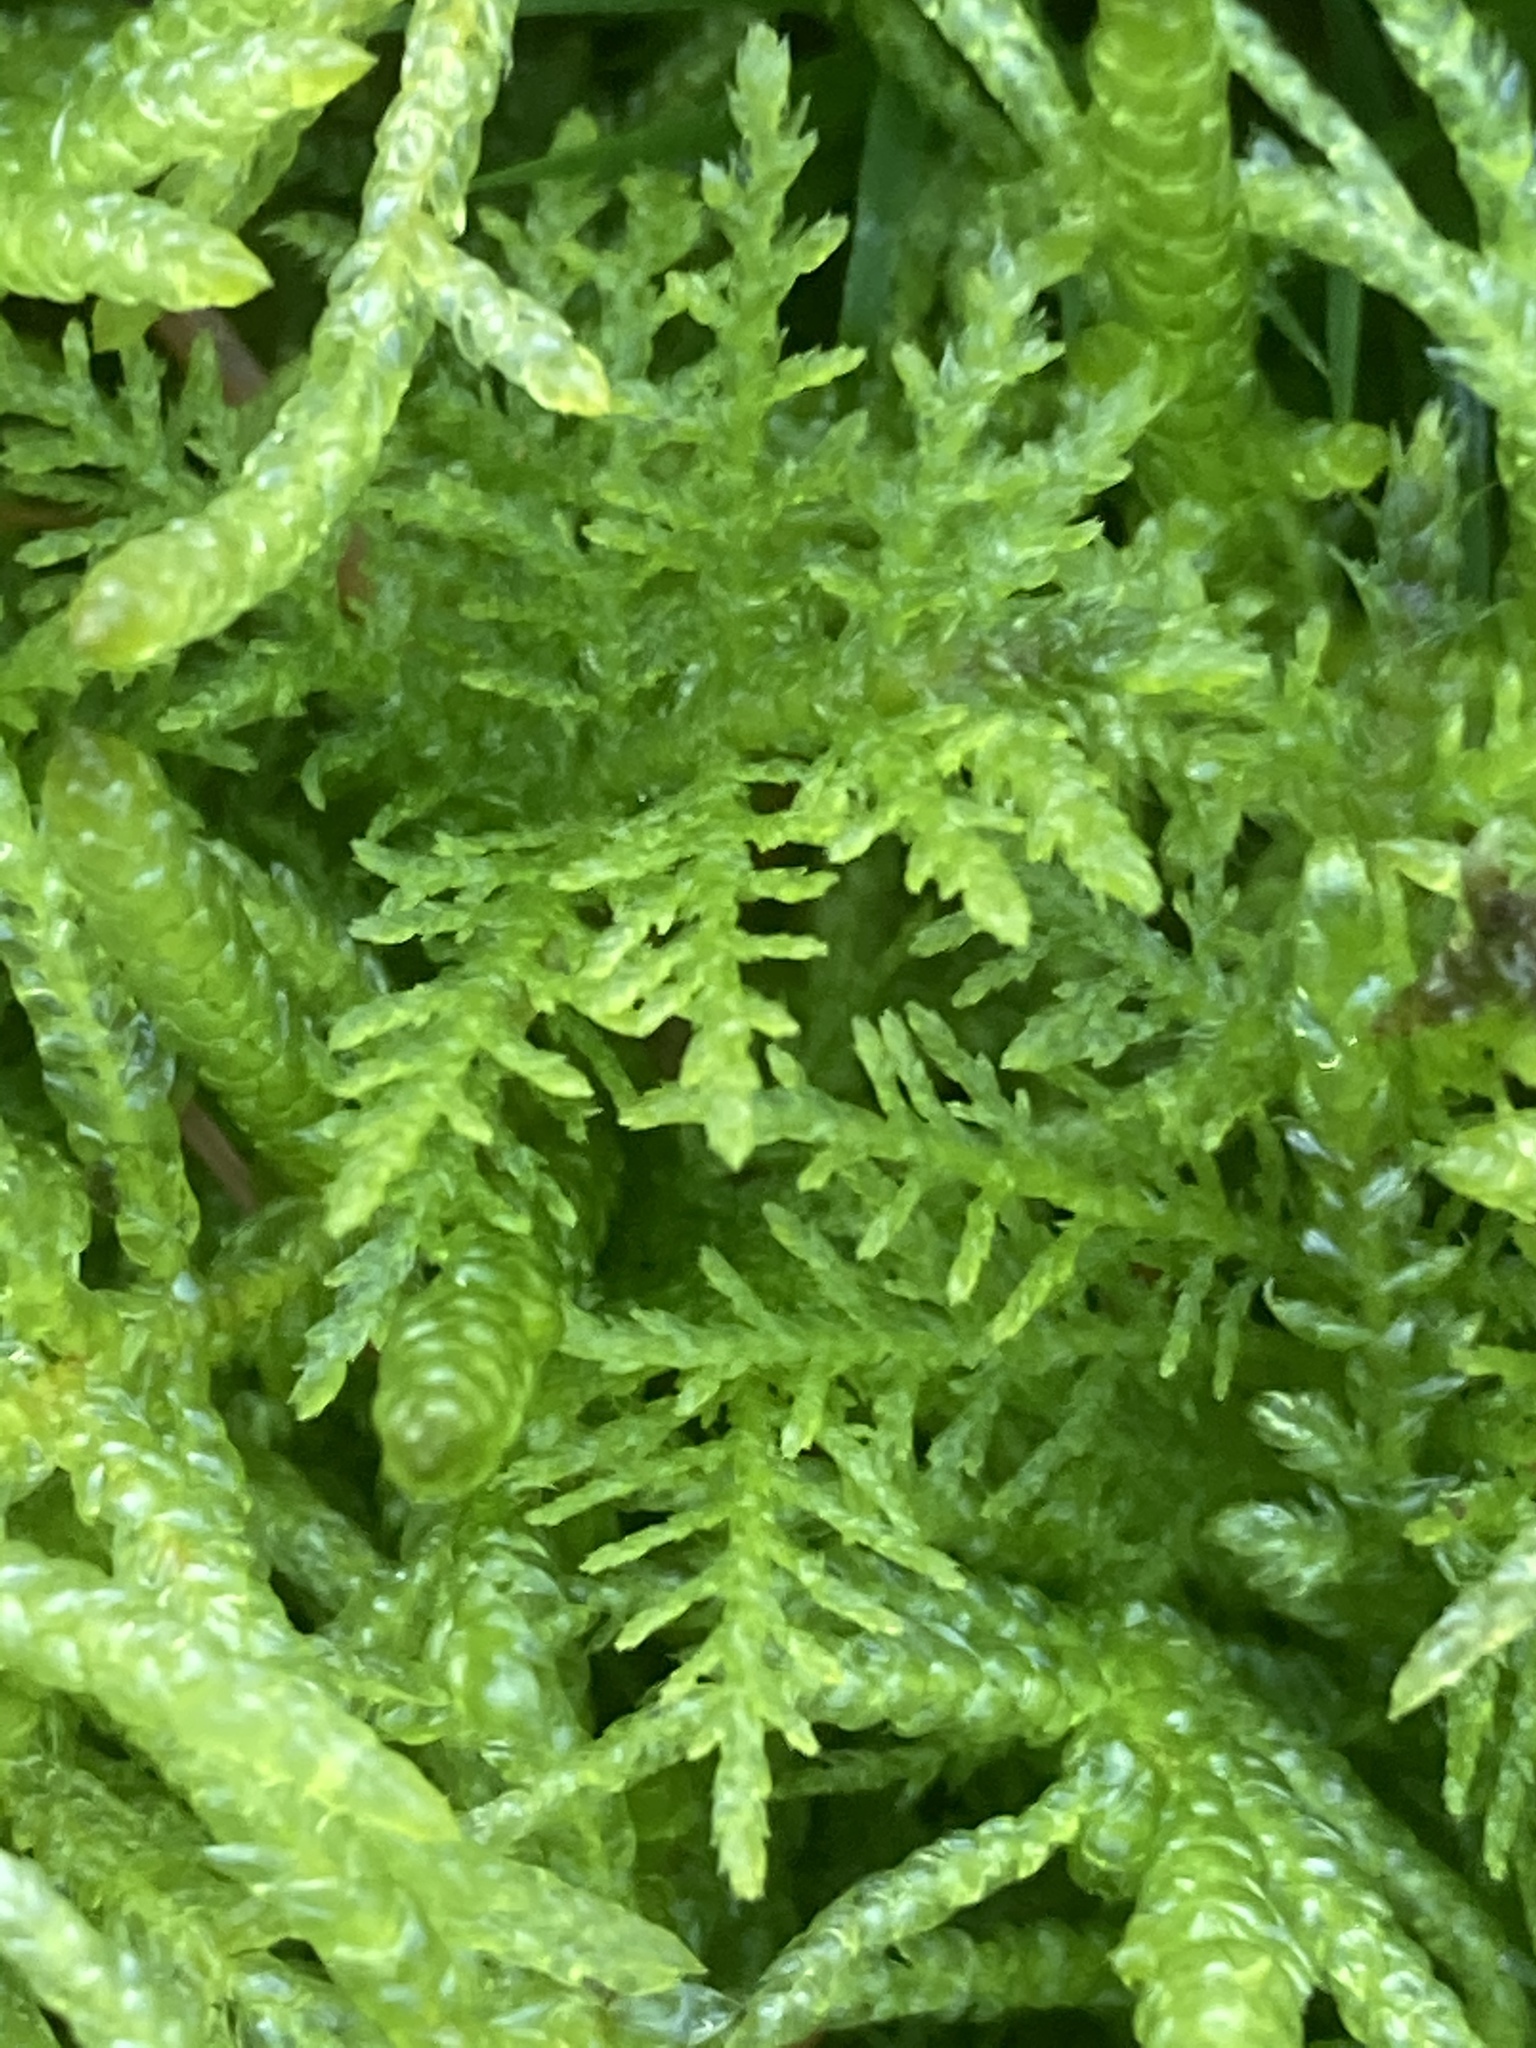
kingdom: Plantae
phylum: Bryophyta
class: Bryopsida
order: Hypnales
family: Brachytheciaceae
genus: Pseudoscleropodium
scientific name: Pseudoscleropodium purum
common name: Neat feather-moss
